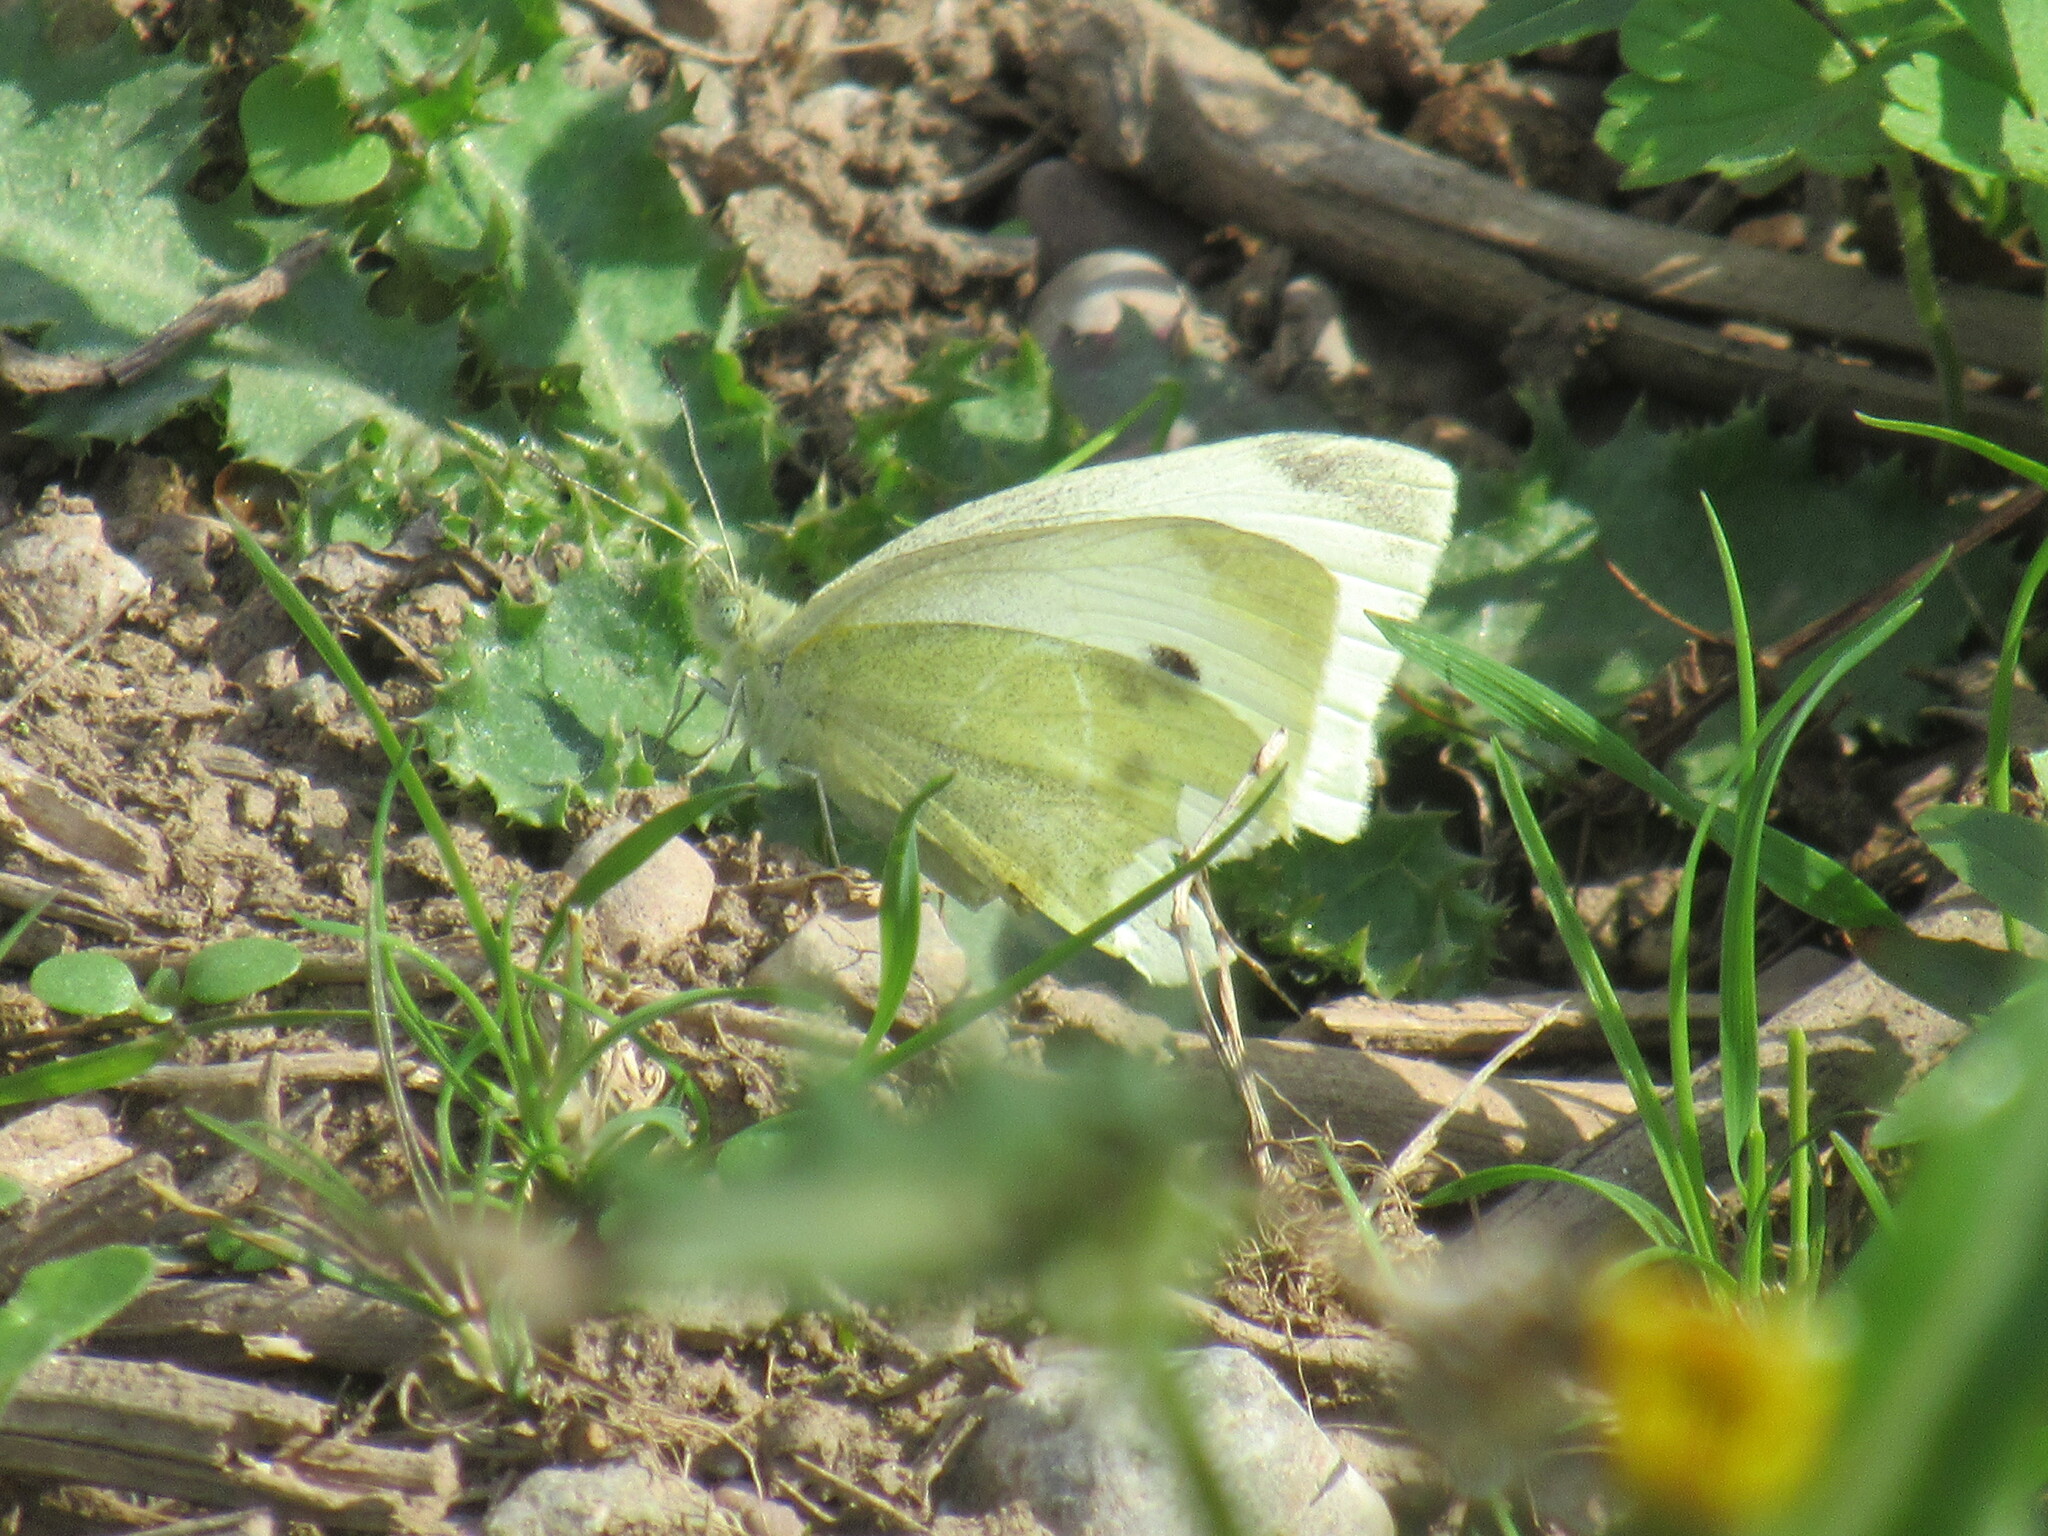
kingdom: Animalia
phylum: Arthropoda
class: Insecta
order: Lepidoptera
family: Pieridae
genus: Pieris
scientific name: Pieris rapae
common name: Small white
